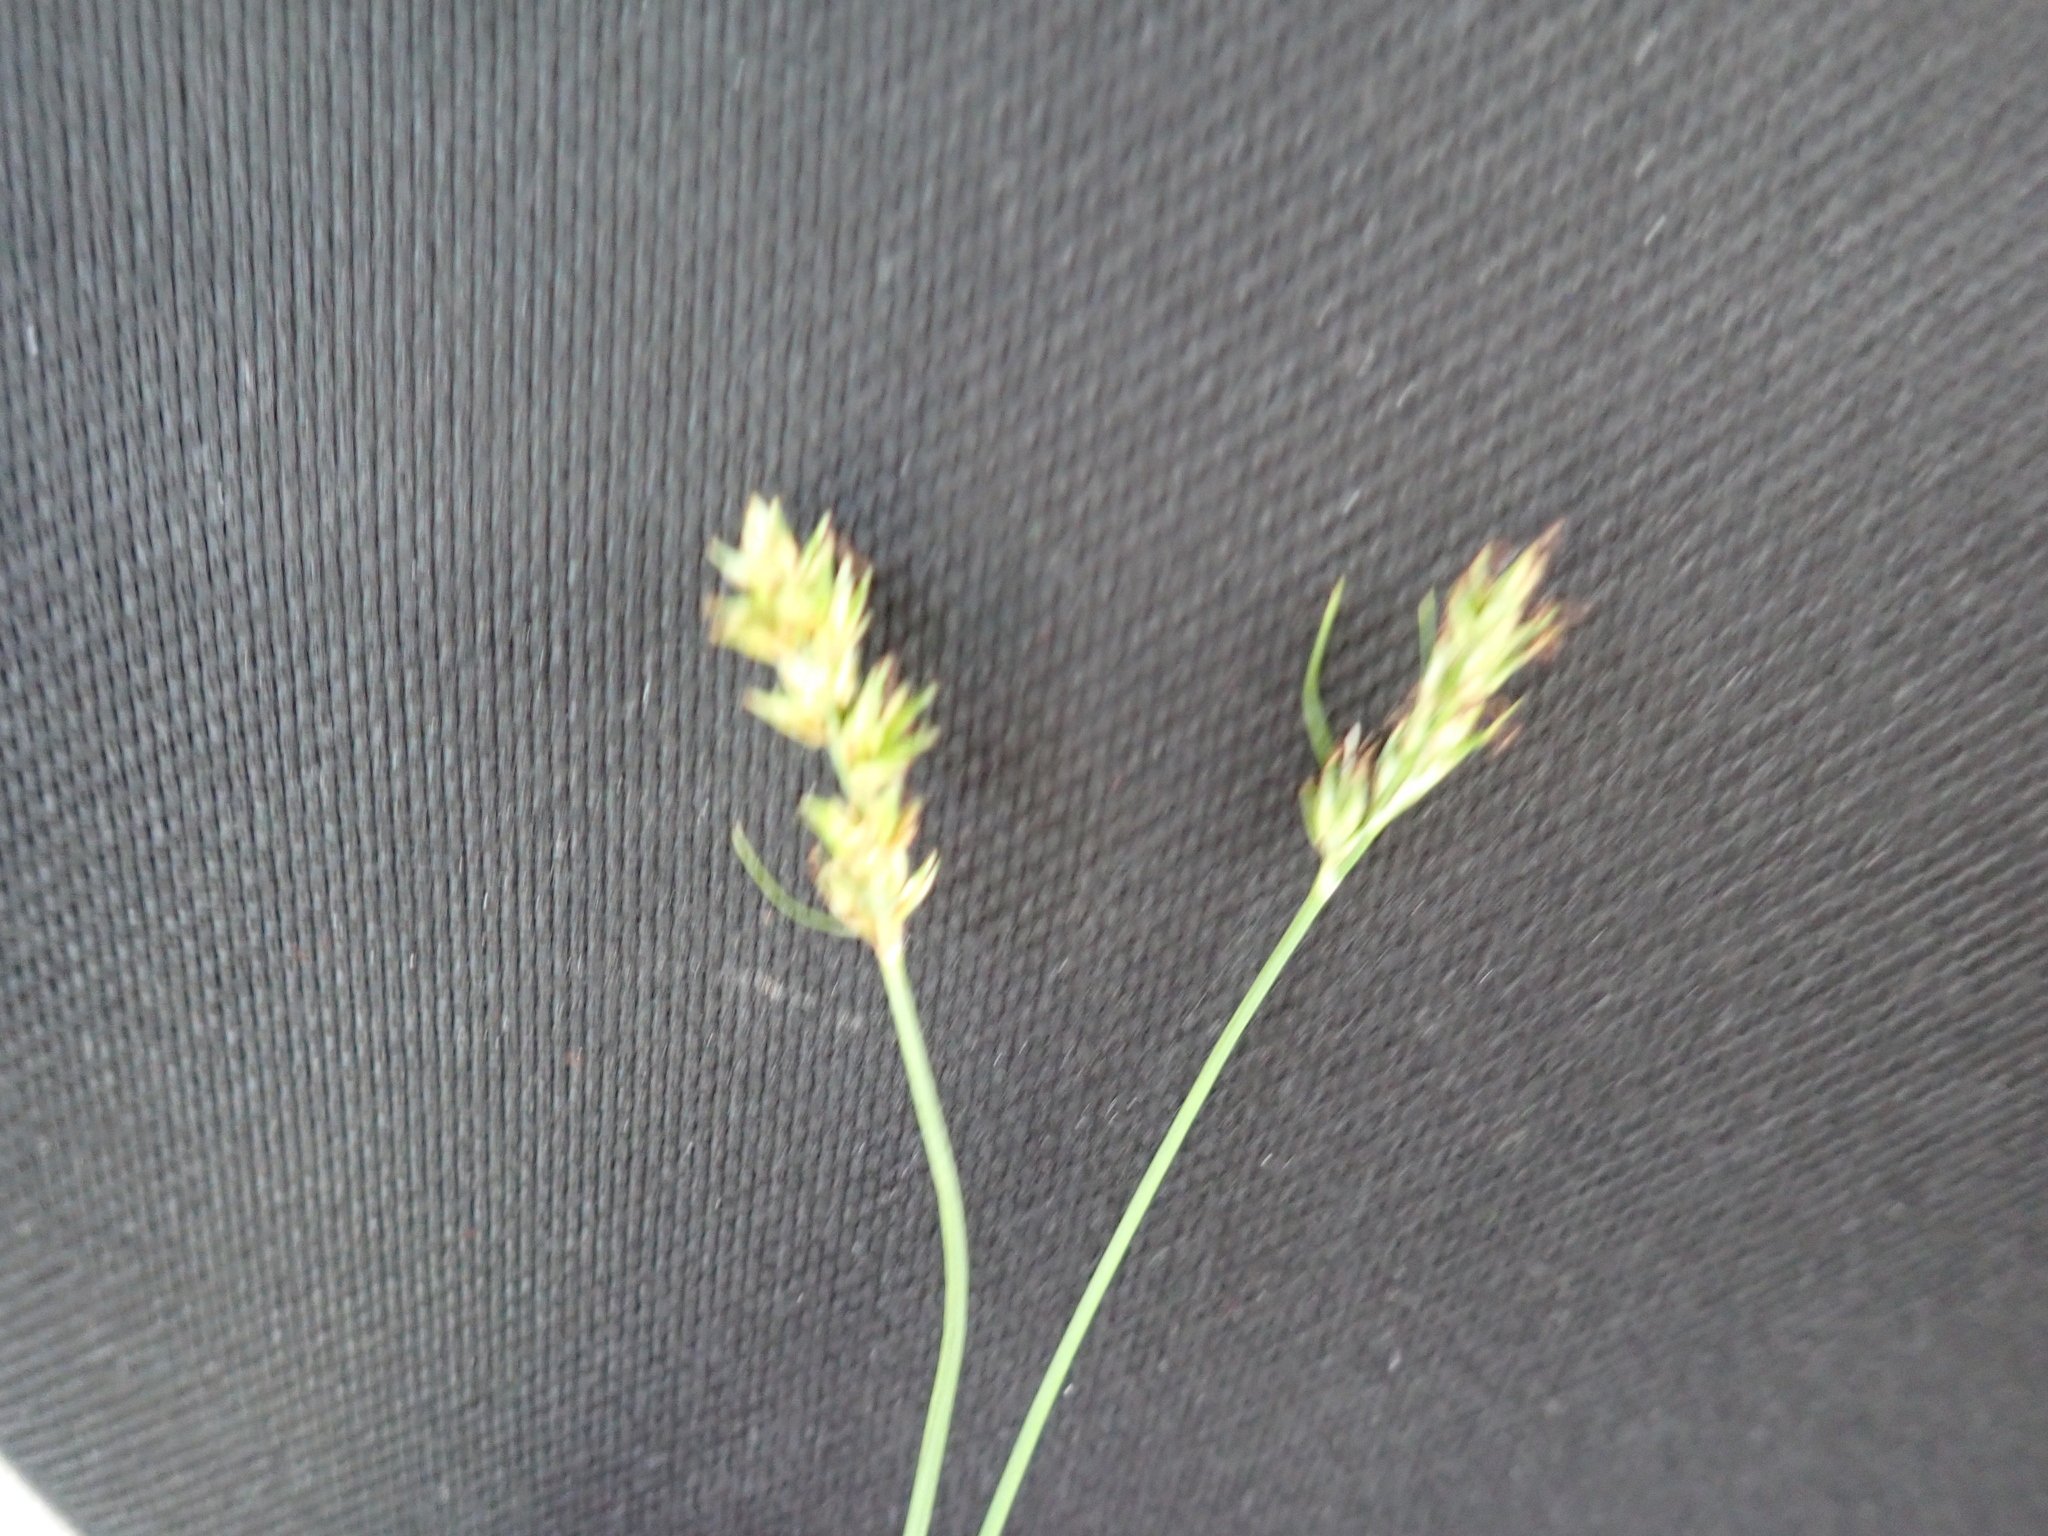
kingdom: Plantae
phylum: Tracheophyta
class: Liliopsida
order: Poales
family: Cyperaceae
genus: Carex
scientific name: Carex muricata
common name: Rough sedge
